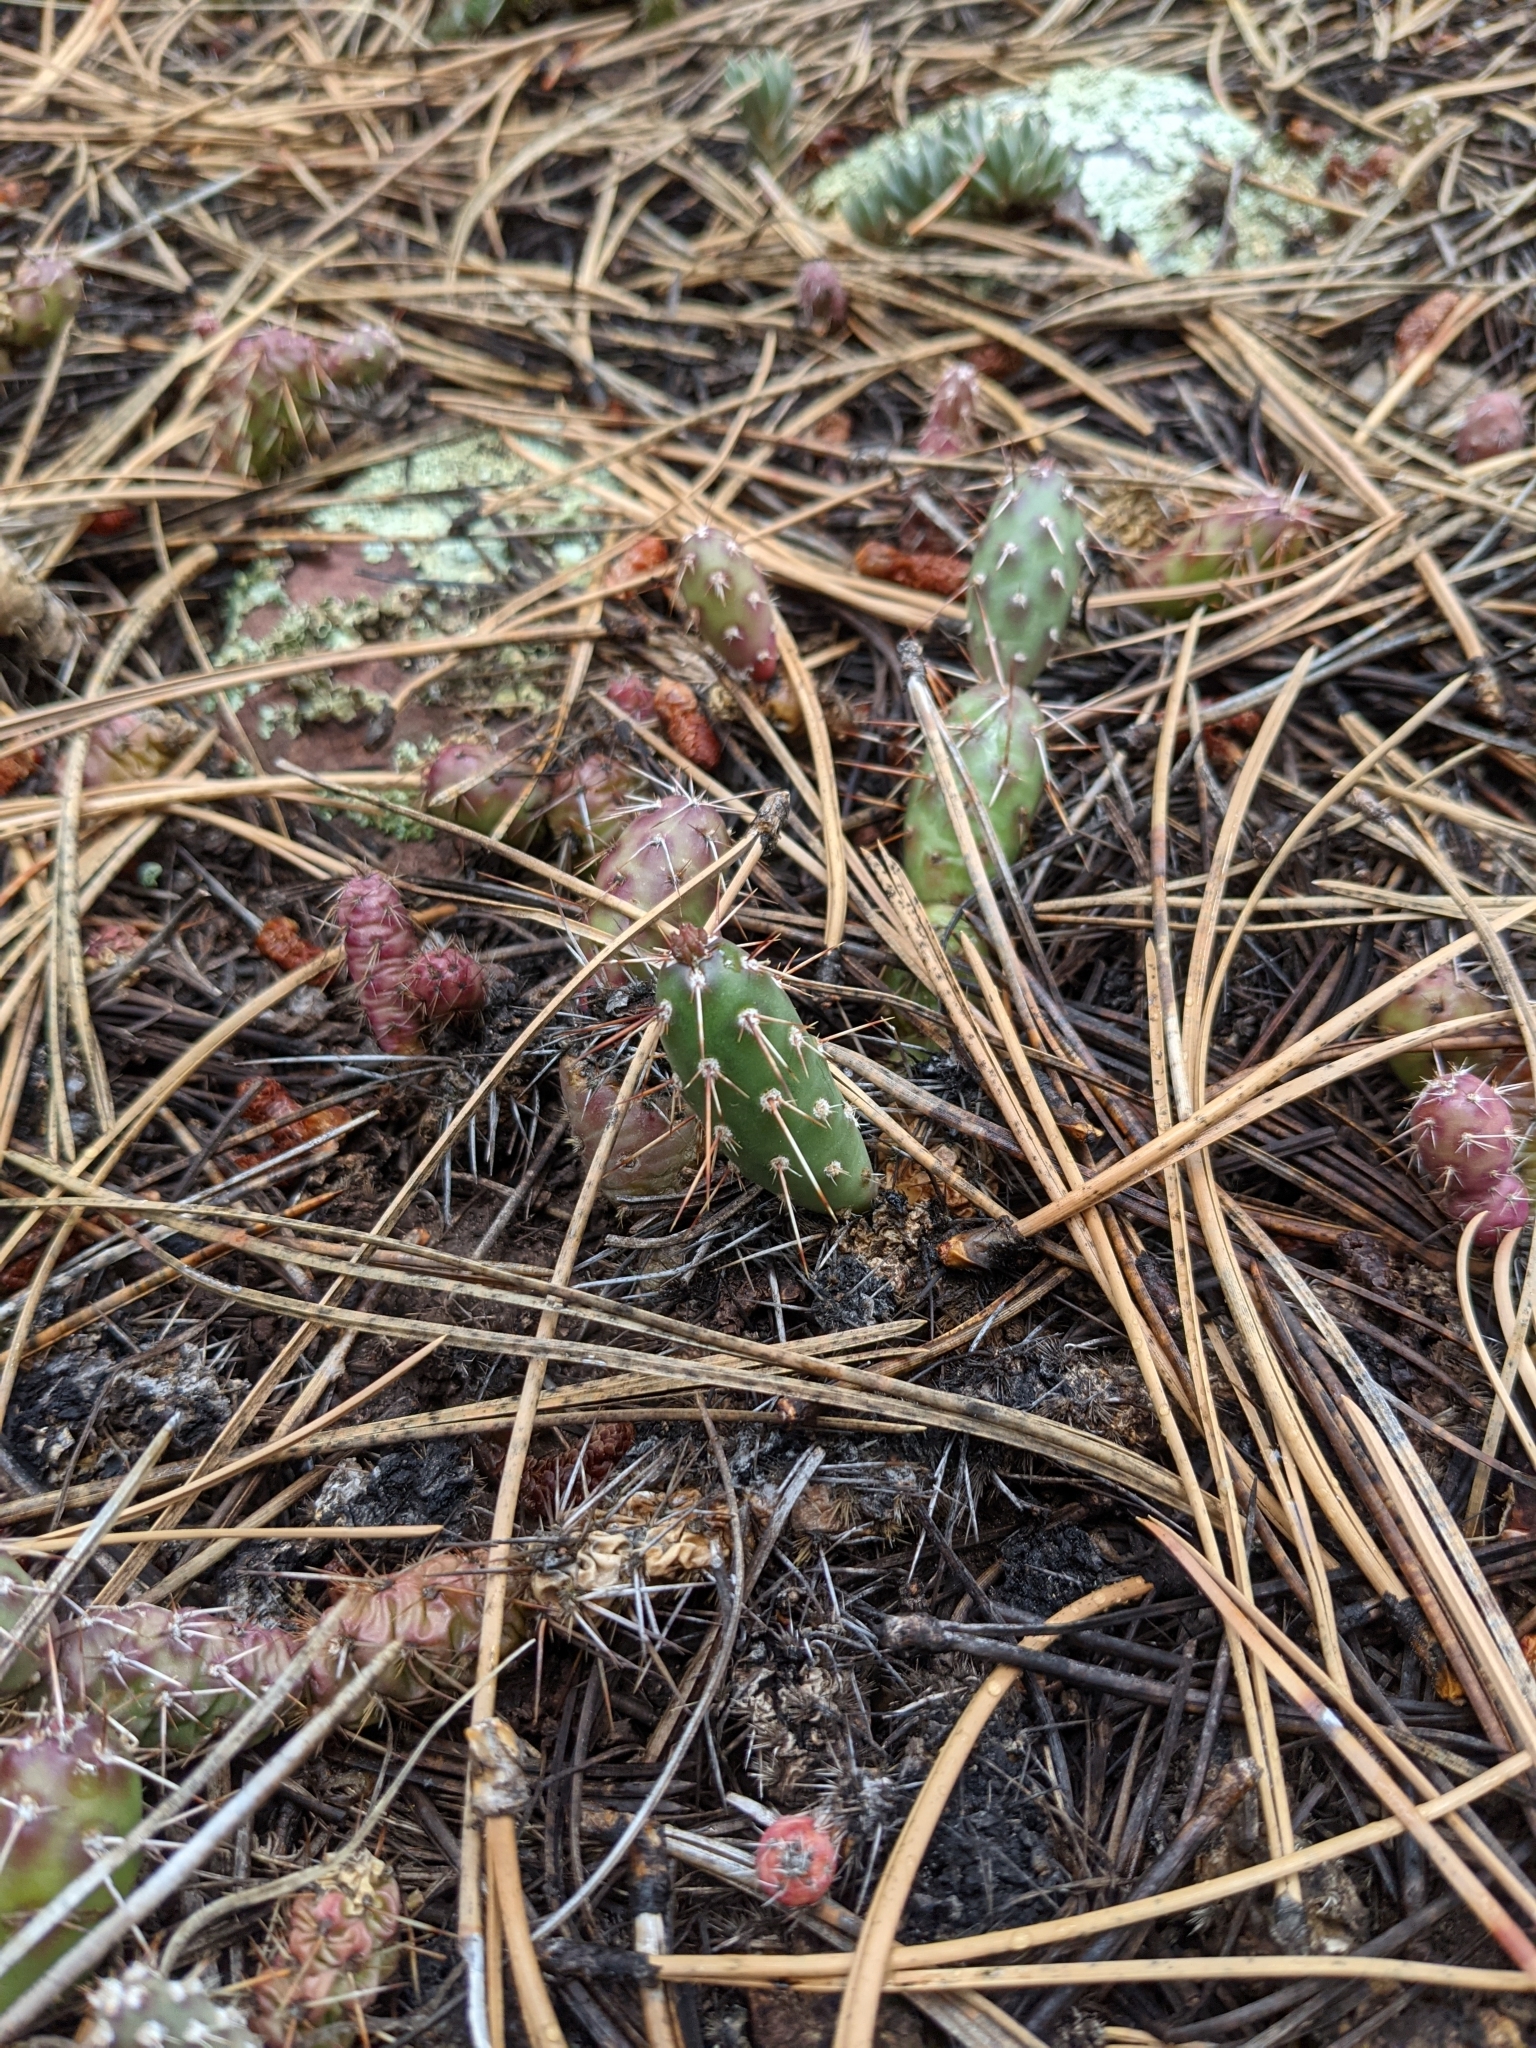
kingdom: Plantae
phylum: Tracheophyta
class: Magnoliopsida
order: Caryophyllales
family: Cactaceae
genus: Opuntia
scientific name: Opuntia fragilis
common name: Brittle cactus
